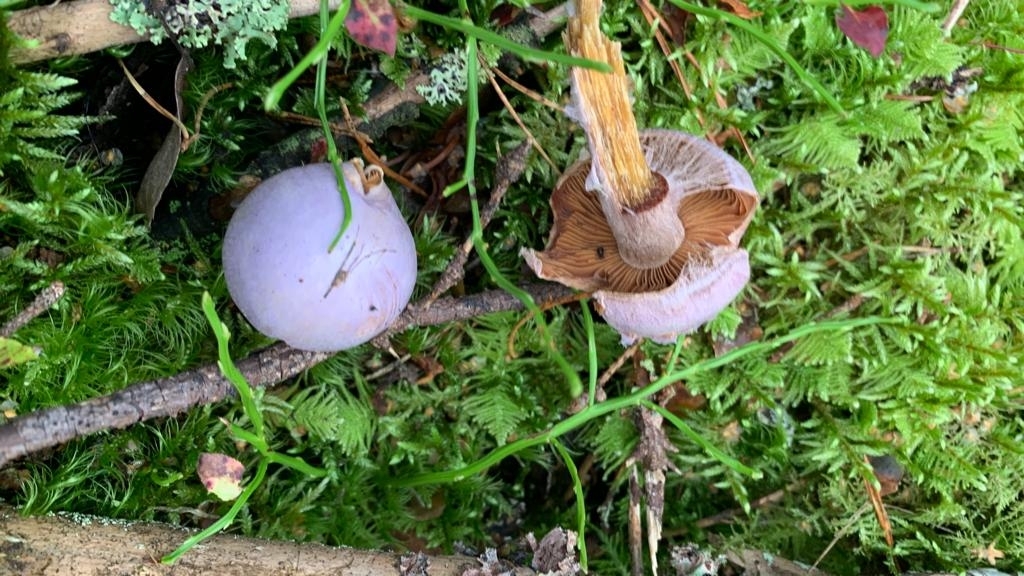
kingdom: Fungi
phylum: Basidiomycota
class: Agaricomycetes
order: Agaricales
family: Cortinariaceae
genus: Cortinarius
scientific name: Cortinarius traganus
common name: Gassy webcap
